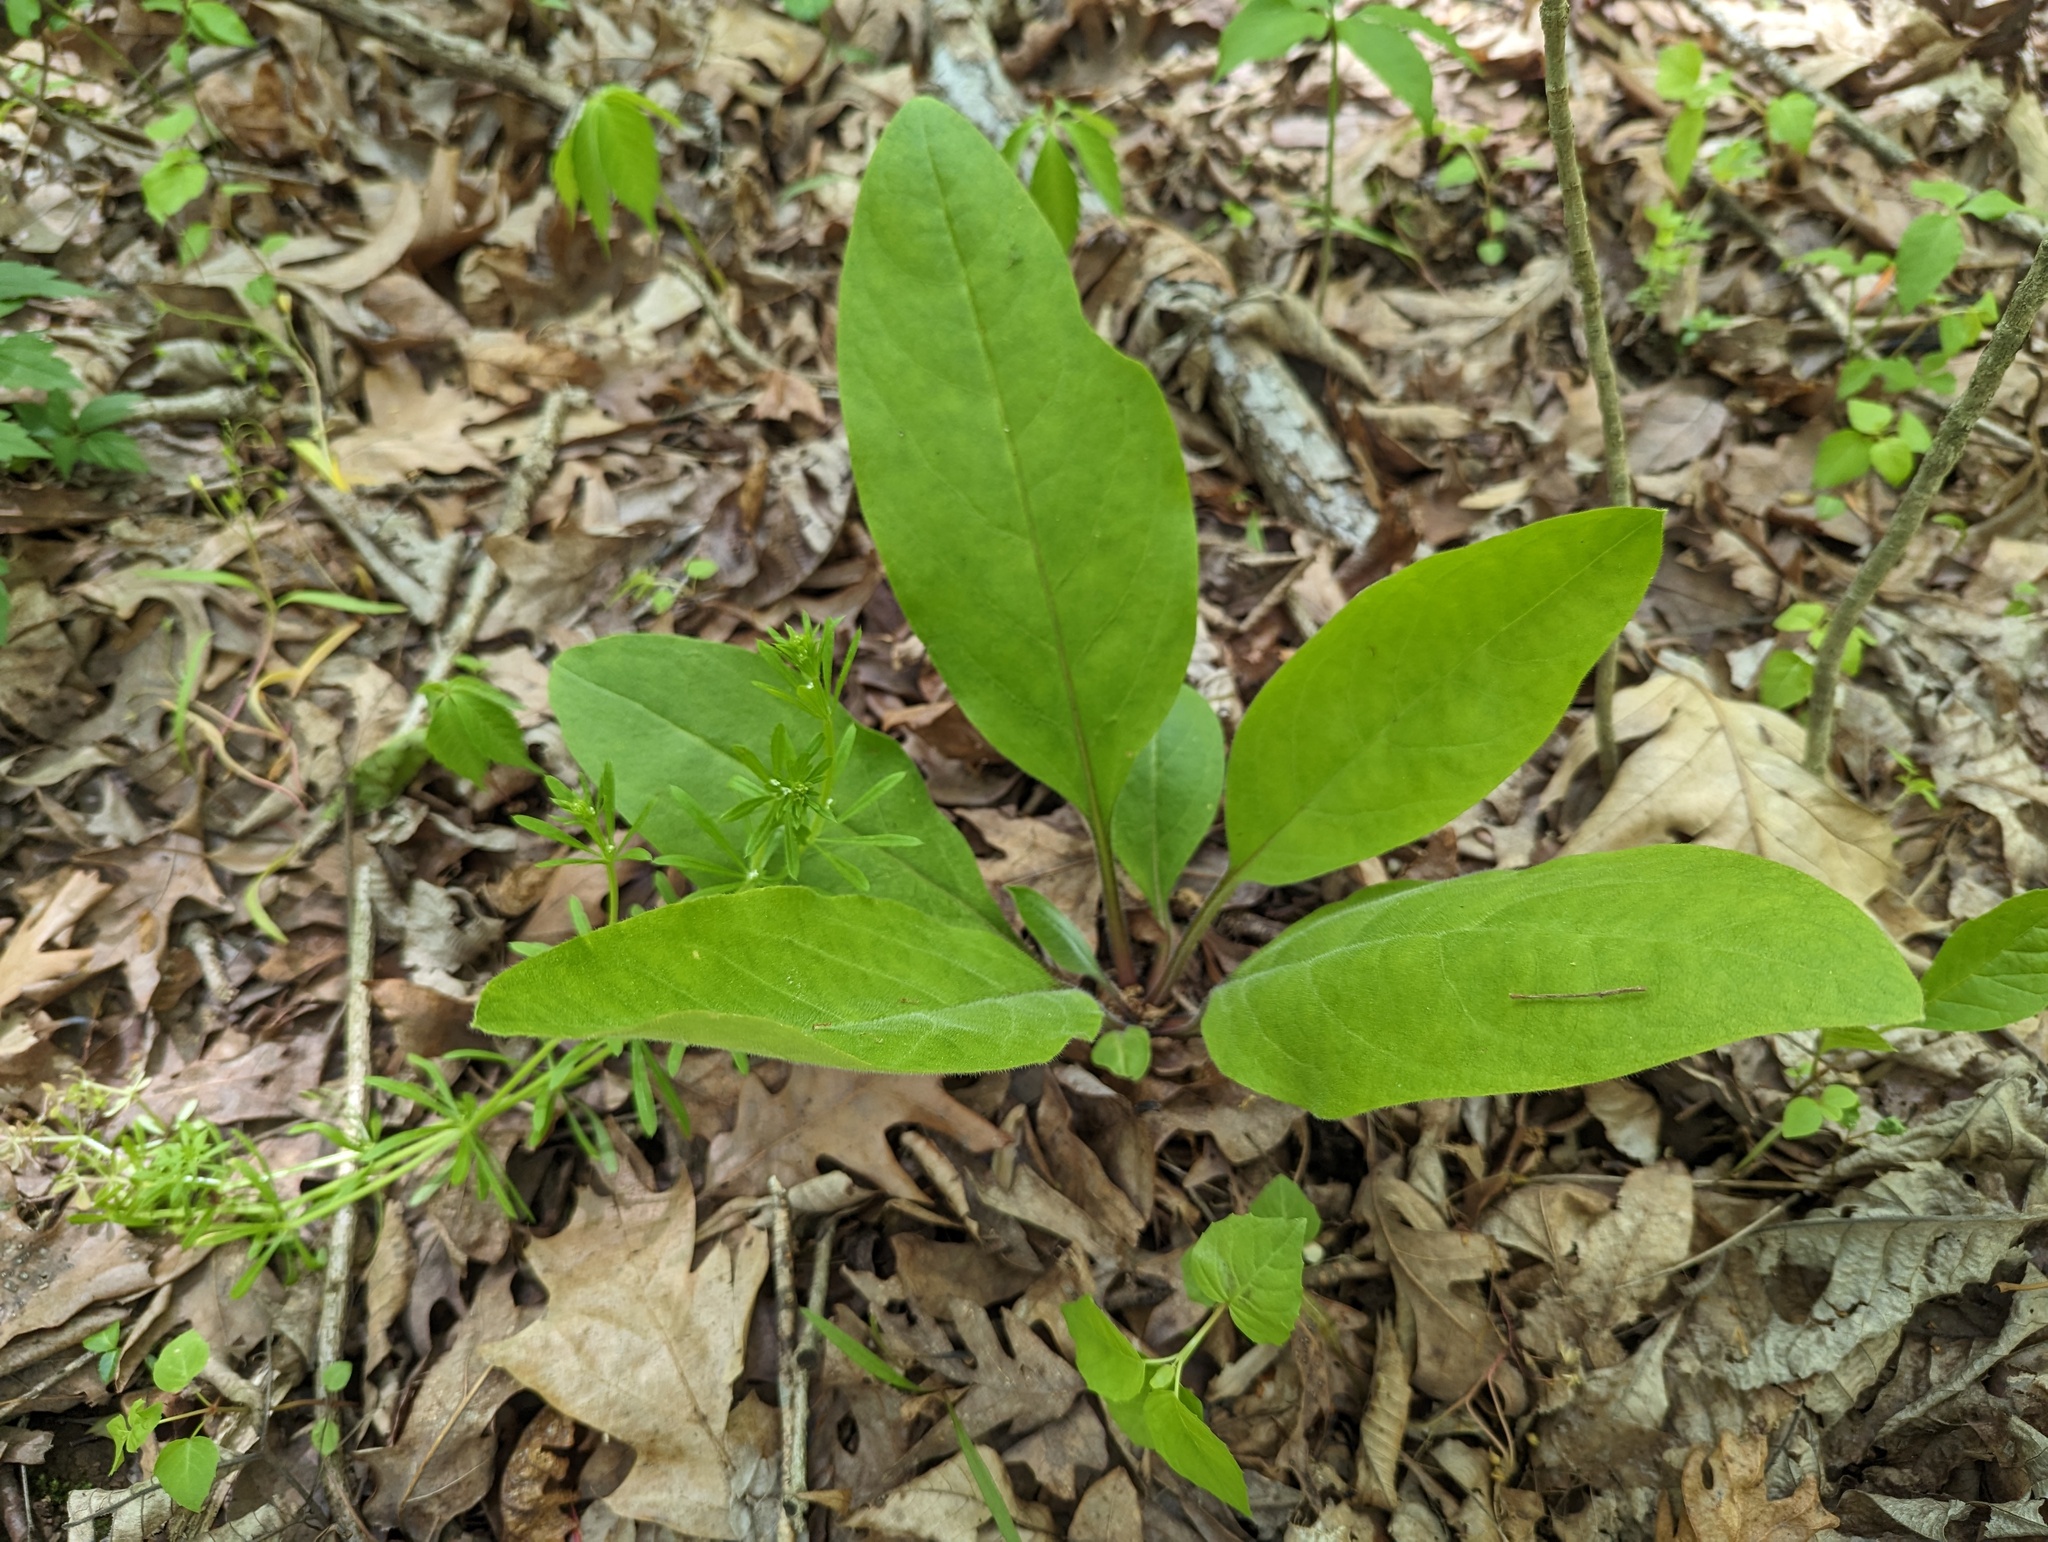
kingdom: Plantae
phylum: Tracheophyta
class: Magnoliopsida
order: Boraginales
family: Boraginaceae
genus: Andersonglossum
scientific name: Andersonglossum virginianum
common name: Wild comfrey
